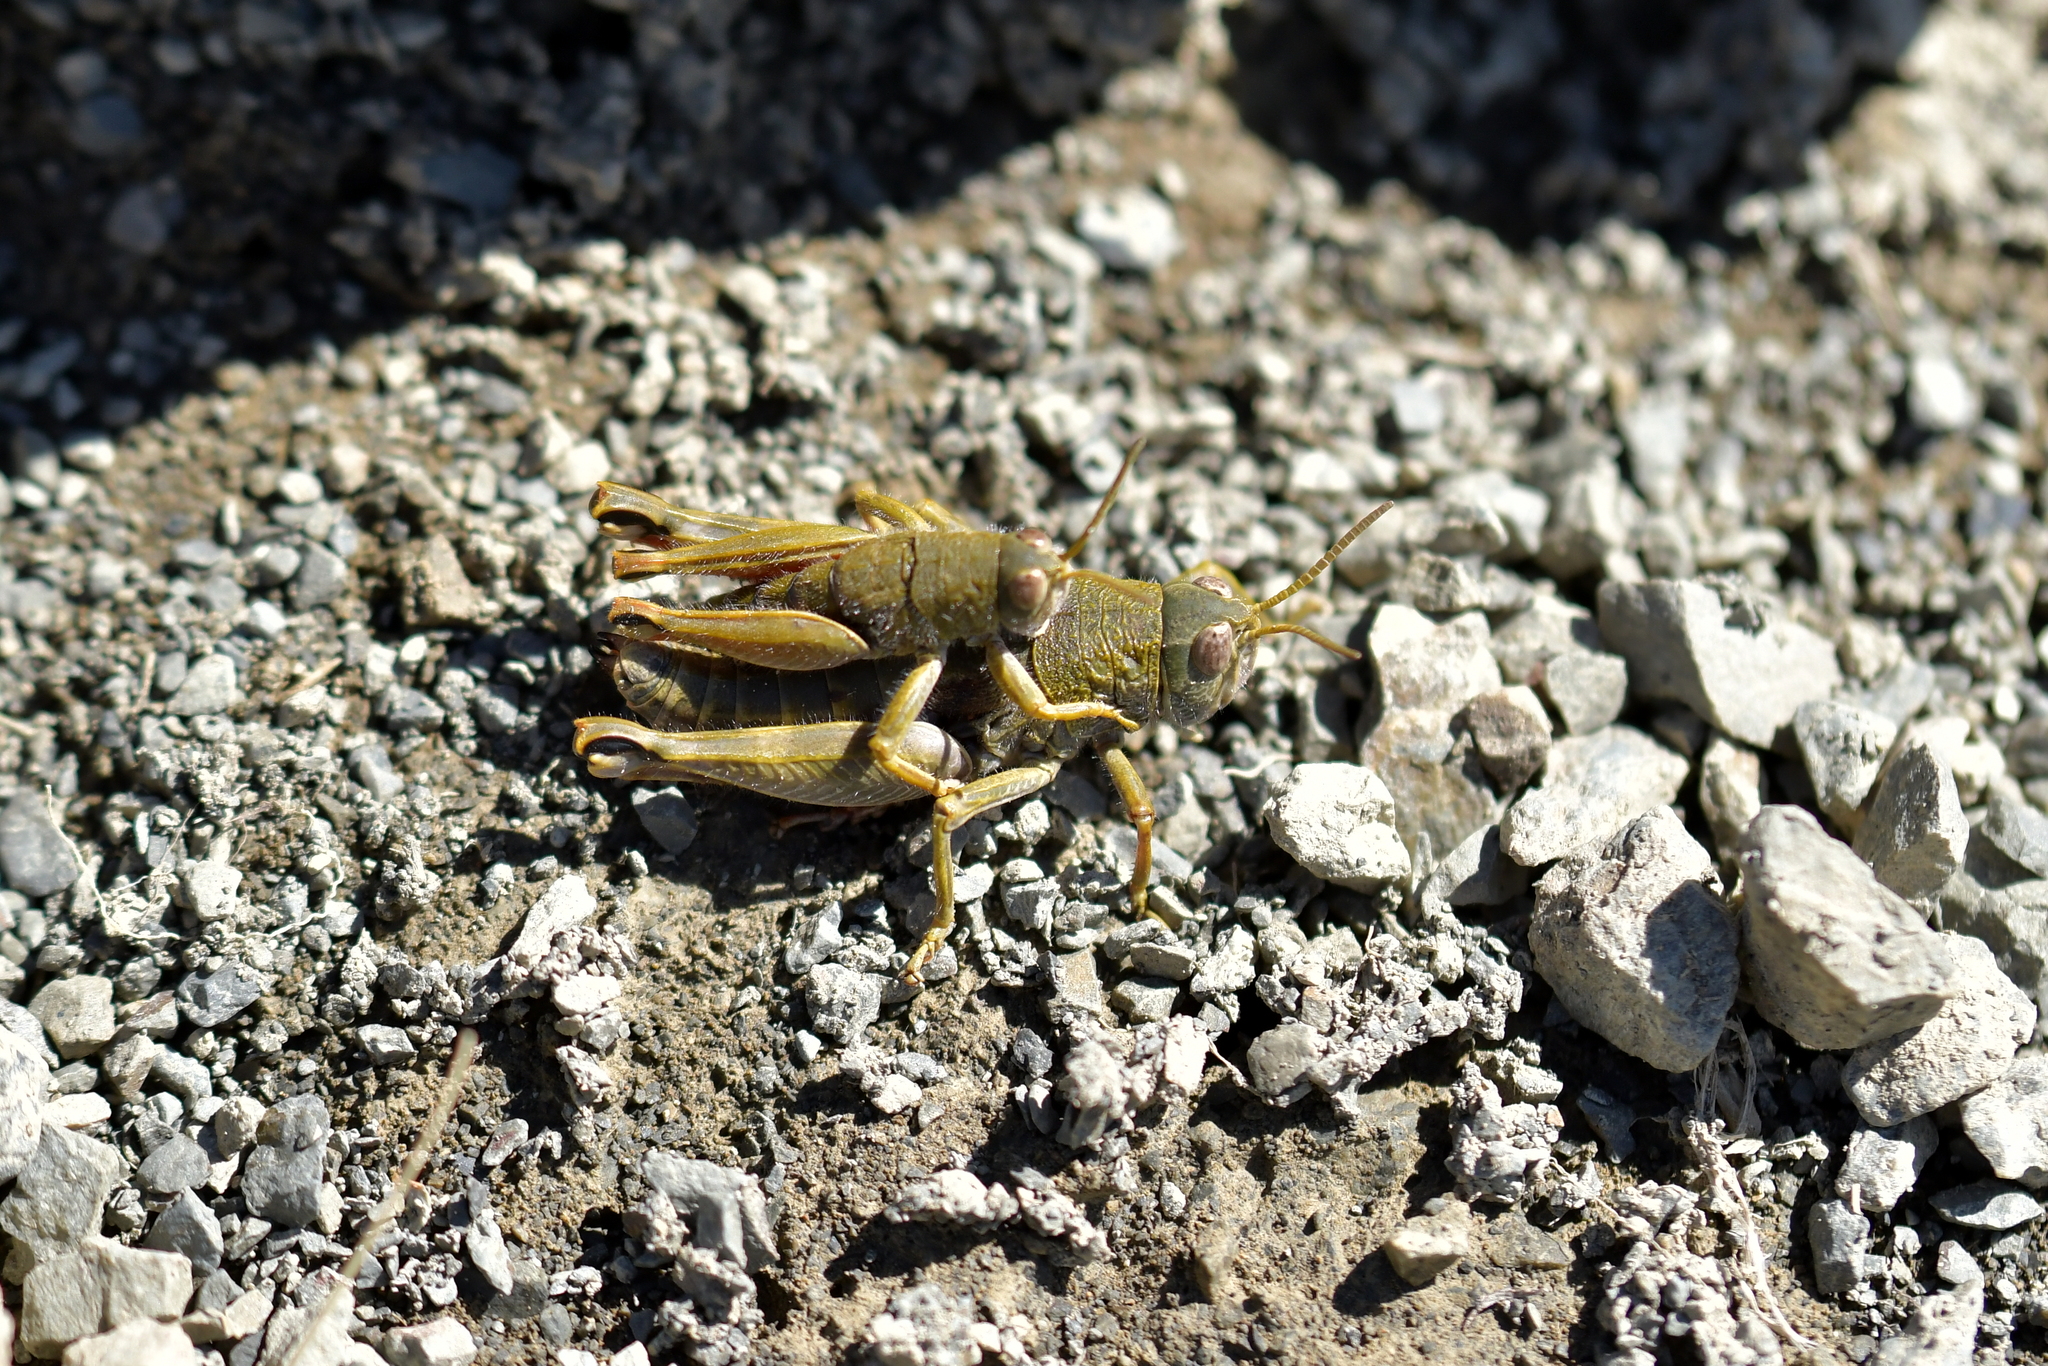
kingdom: Animalia
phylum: Arthropoda
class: Insecta
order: Orthoptera
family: Acrididae
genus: Sigaus
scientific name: Sigaus
